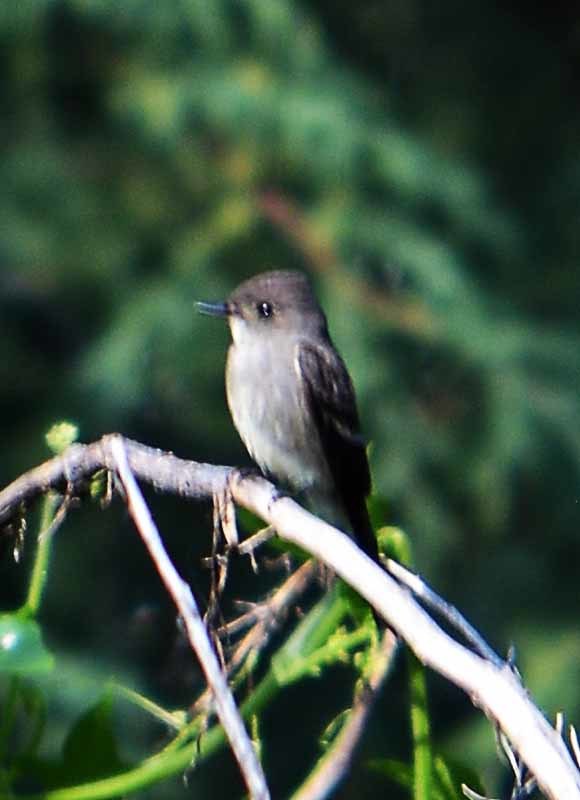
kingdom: Animalia
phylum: Chordata
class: Aves
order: Passeriformes
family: Tyrannidae
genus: Contopus
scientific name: Contopus sordidulus
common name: Western wood-pewee
